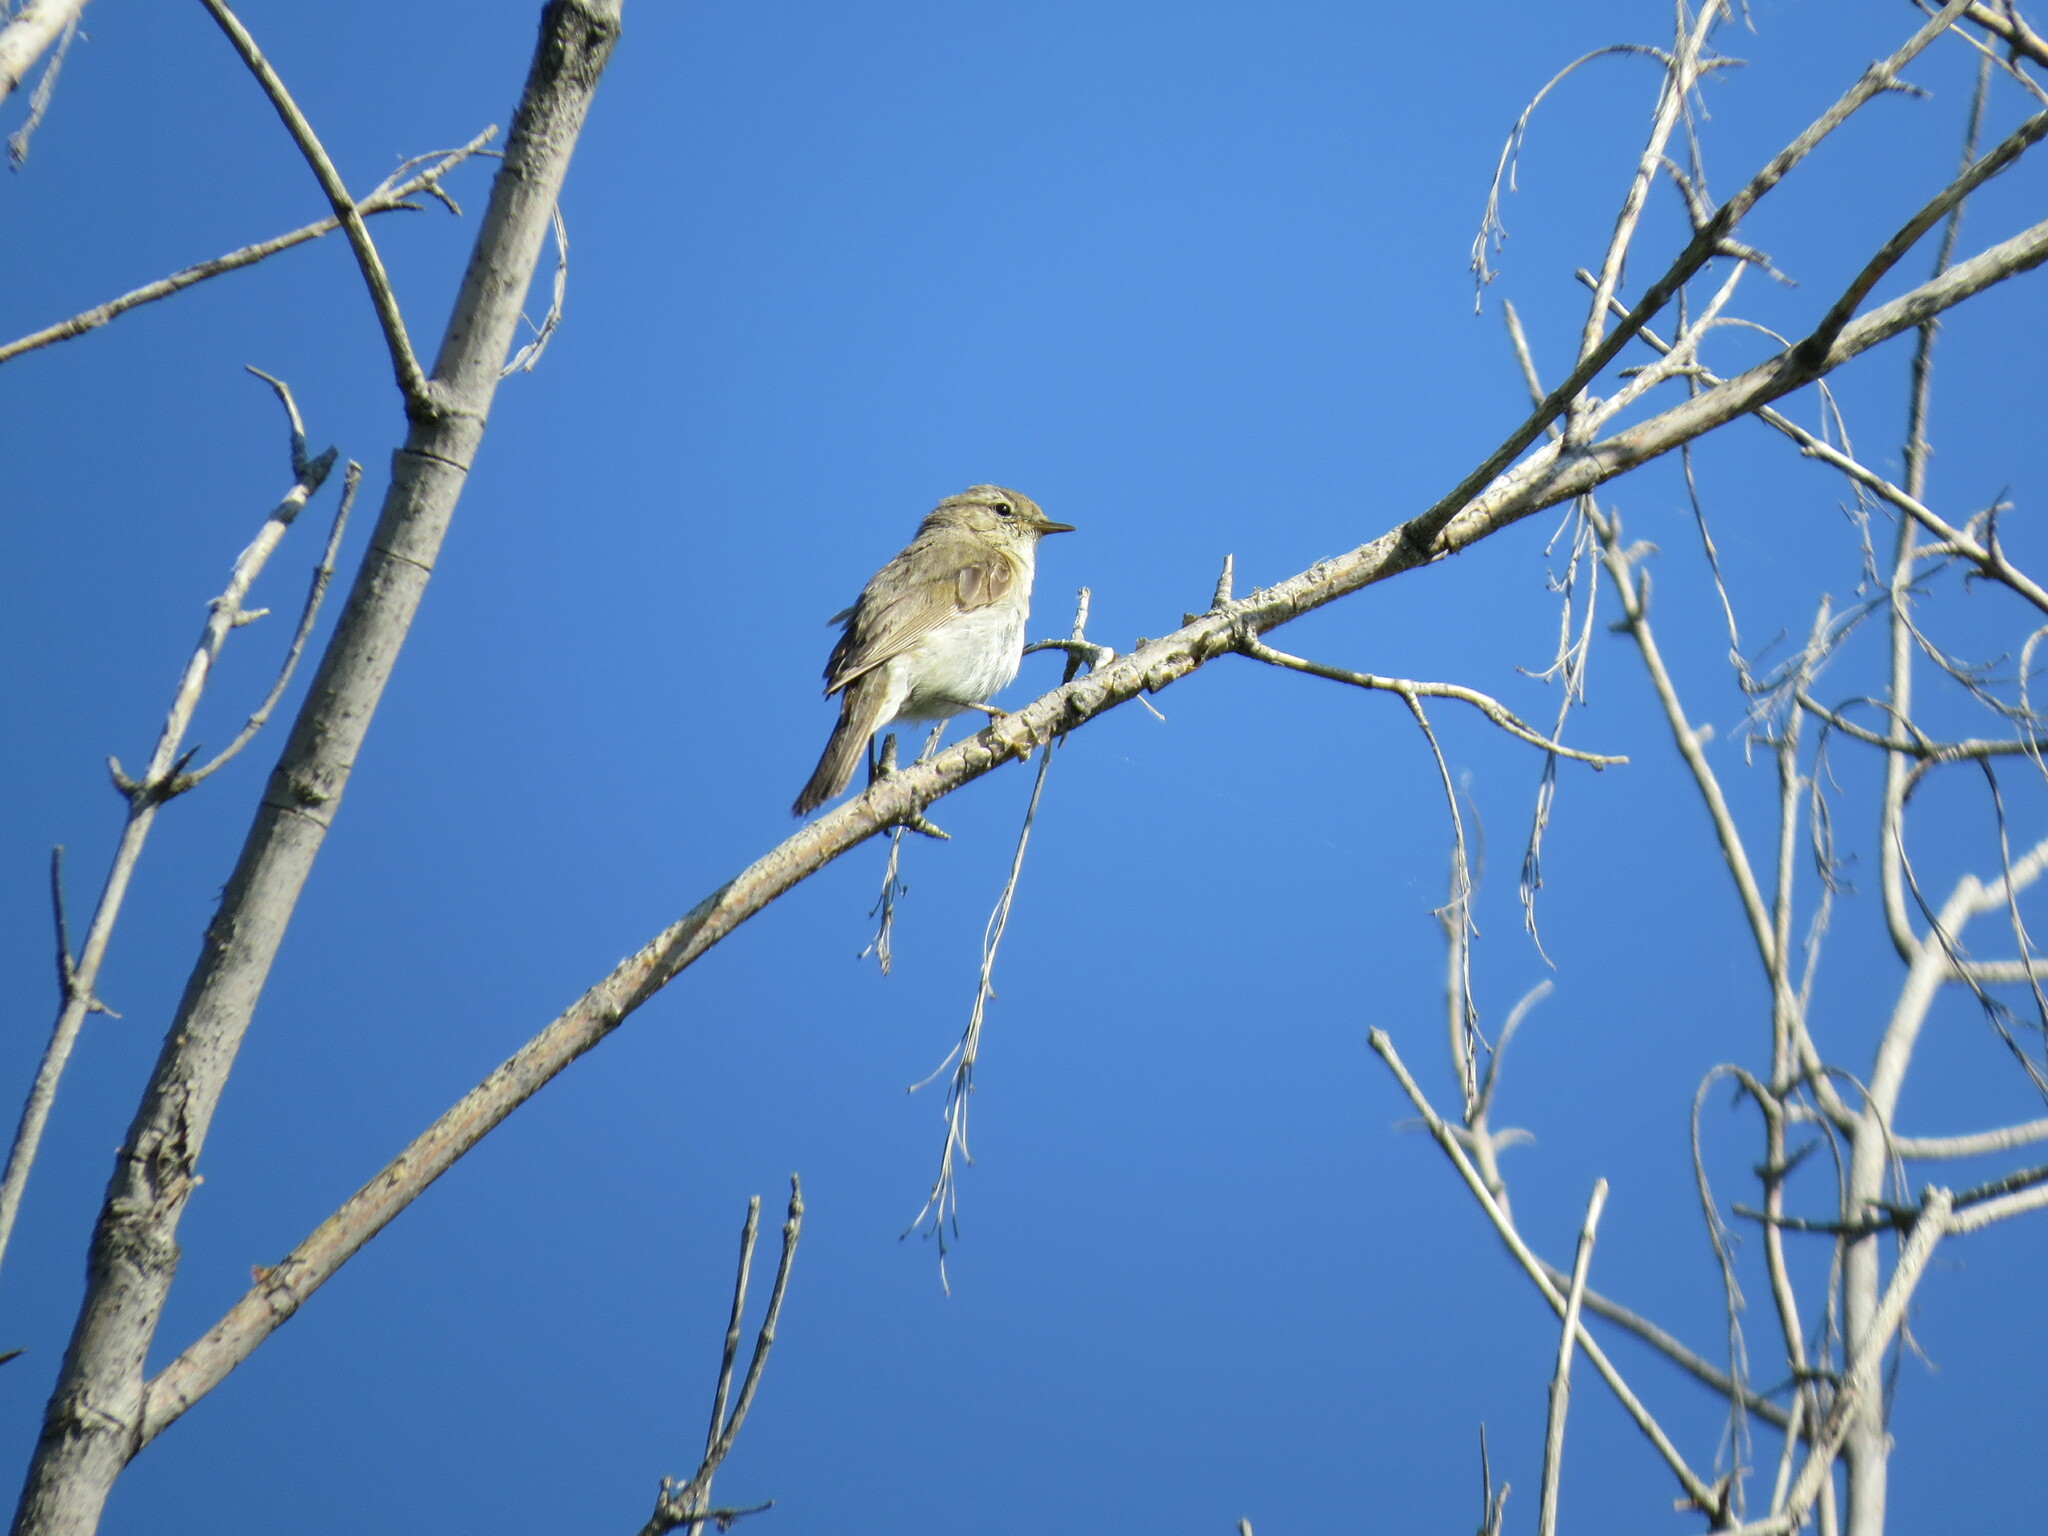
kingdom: Animalia
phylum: Chordata
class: Aves
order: Passeriformes
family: Phylloscopidae
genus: Phylloscopus
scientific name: Phylloscopus collybita
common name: Common chiffchaff
